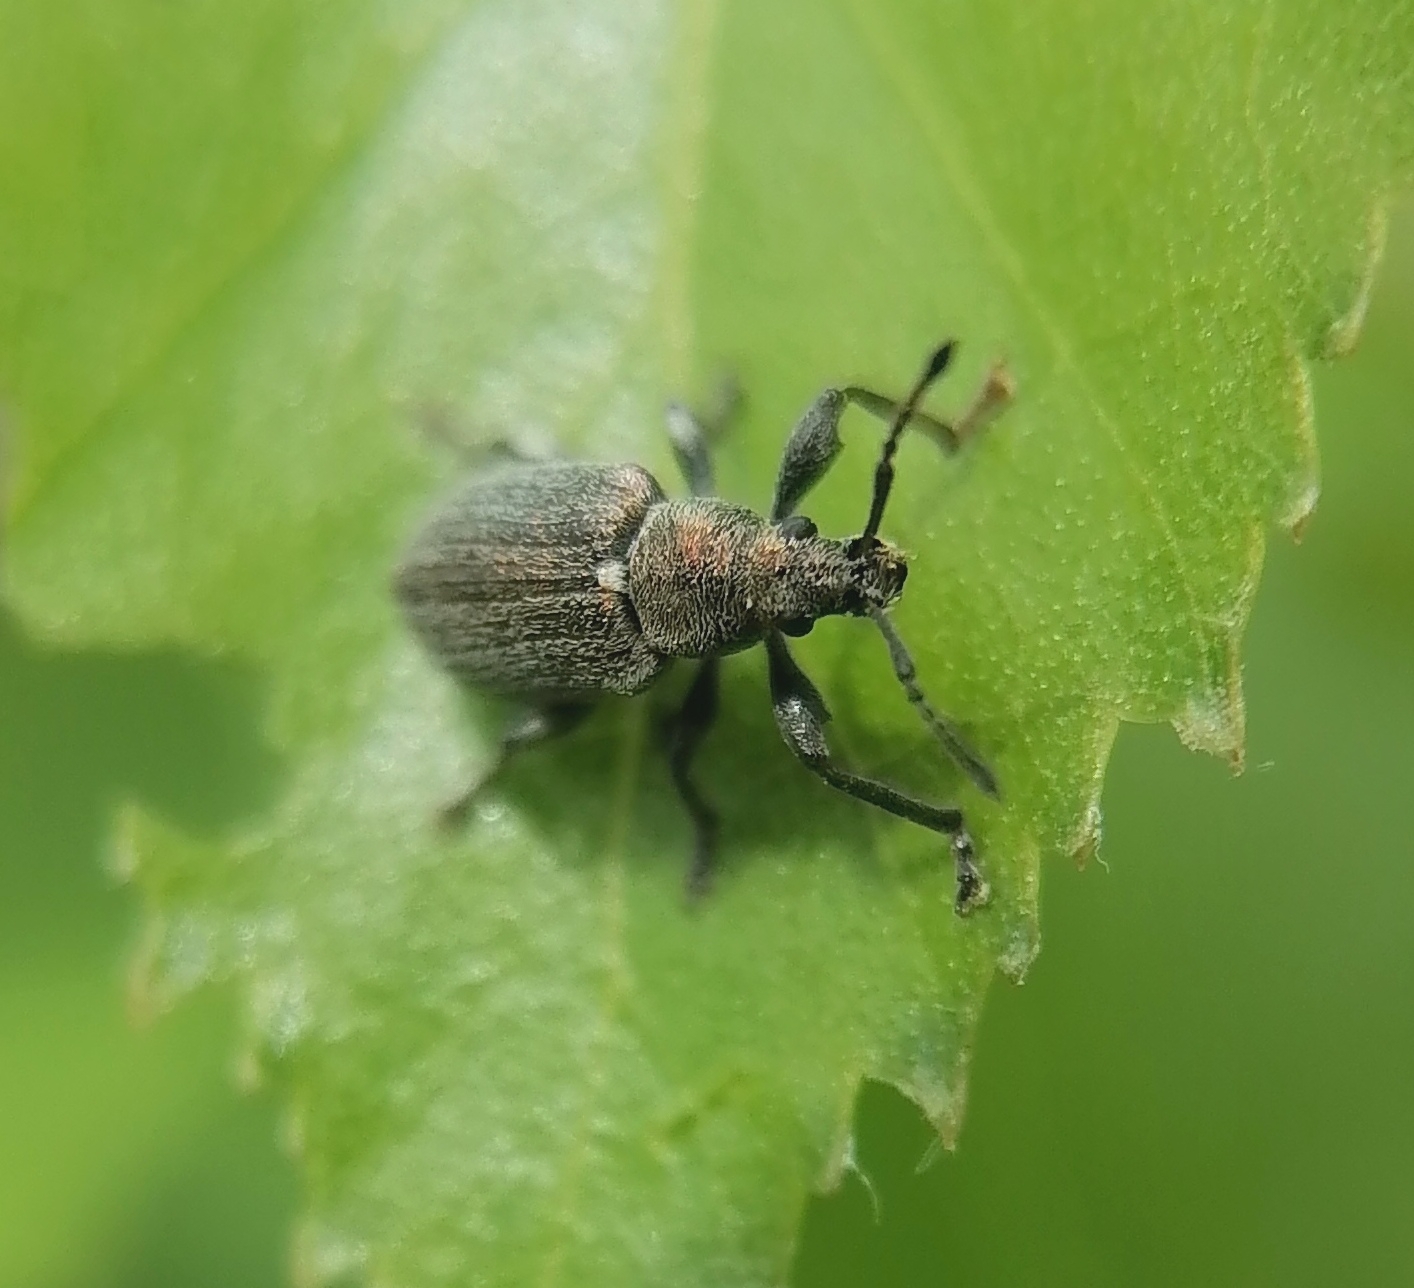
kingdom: Animalia
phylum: Arthropoda
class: Insecta
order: Coleoptera
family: Curculionidae
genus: Phyllobius
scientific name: Phyllobius pyri
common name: Common leaf weevil
